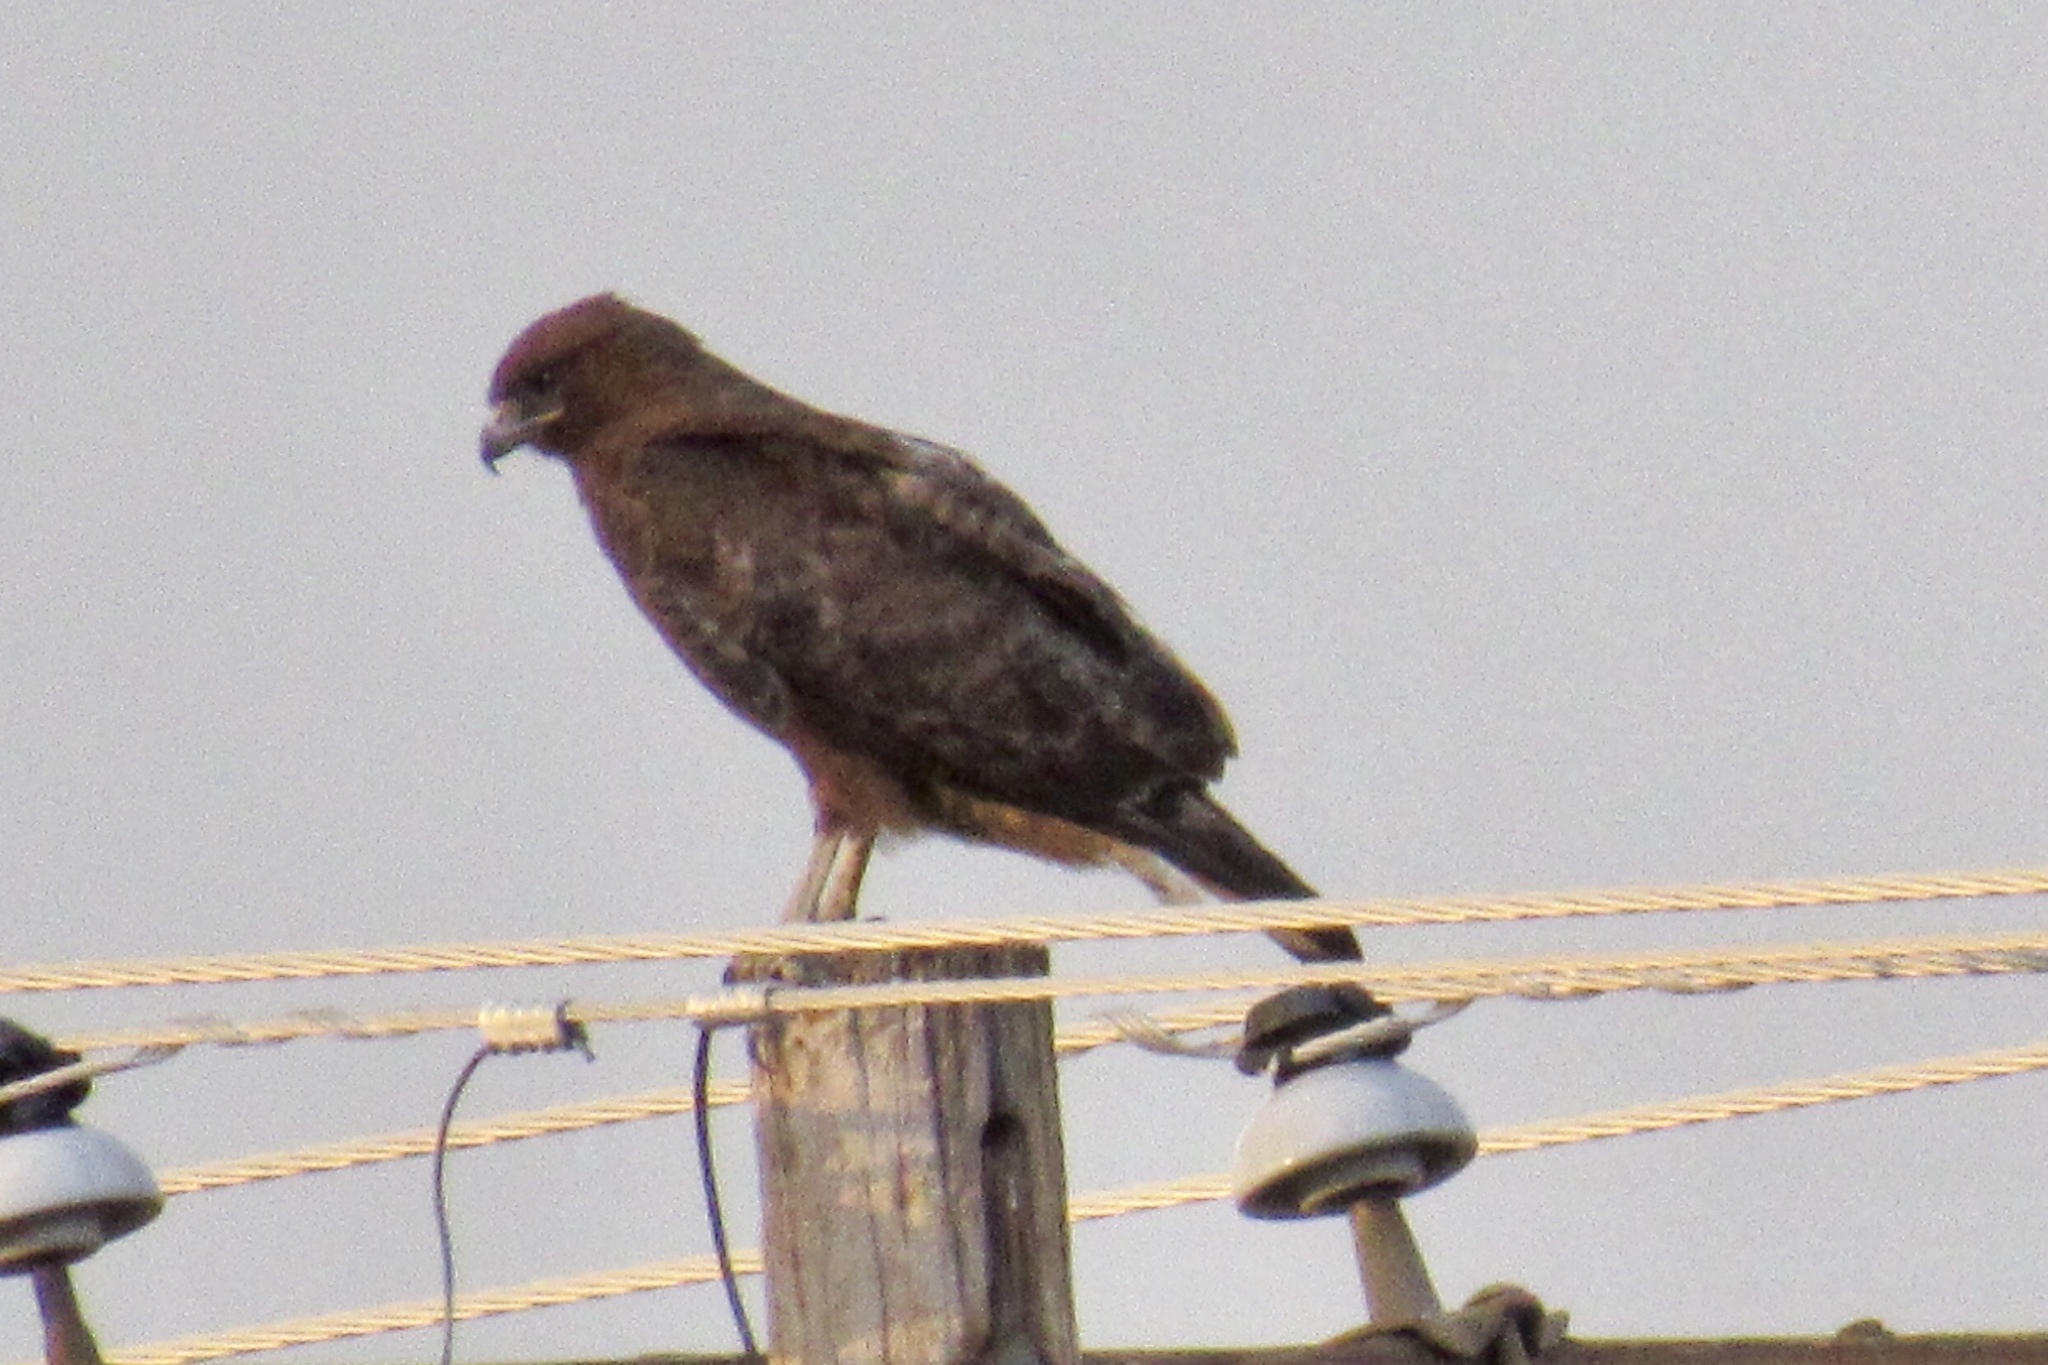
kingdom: Animalia
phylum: Chordata
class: Aves
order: Accipitriformes
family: Accipitridae
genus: Buteo
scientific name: Buteo swainsoni
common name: Swainson's hawk
